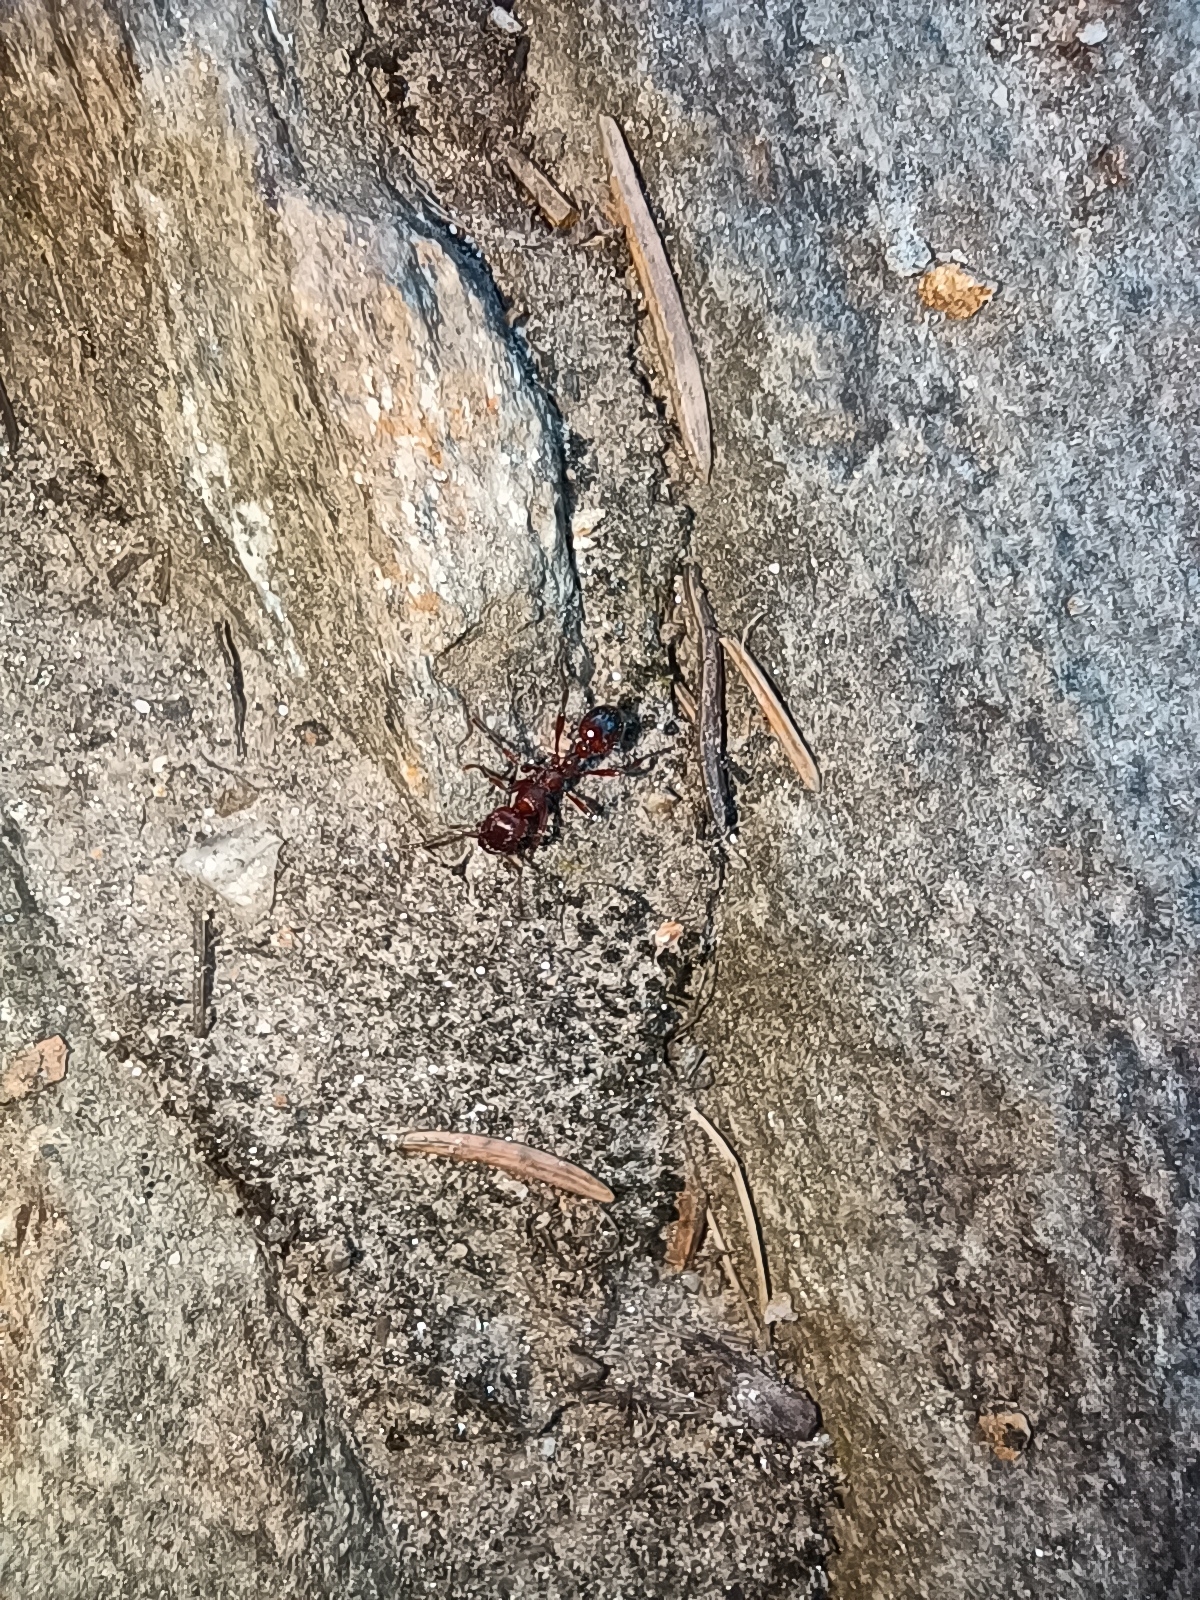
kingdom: Animalia
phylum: Arthropoda
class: Insecta
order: Hymenoptera
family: Formicidae
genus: Manica
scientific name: Manica rubida
